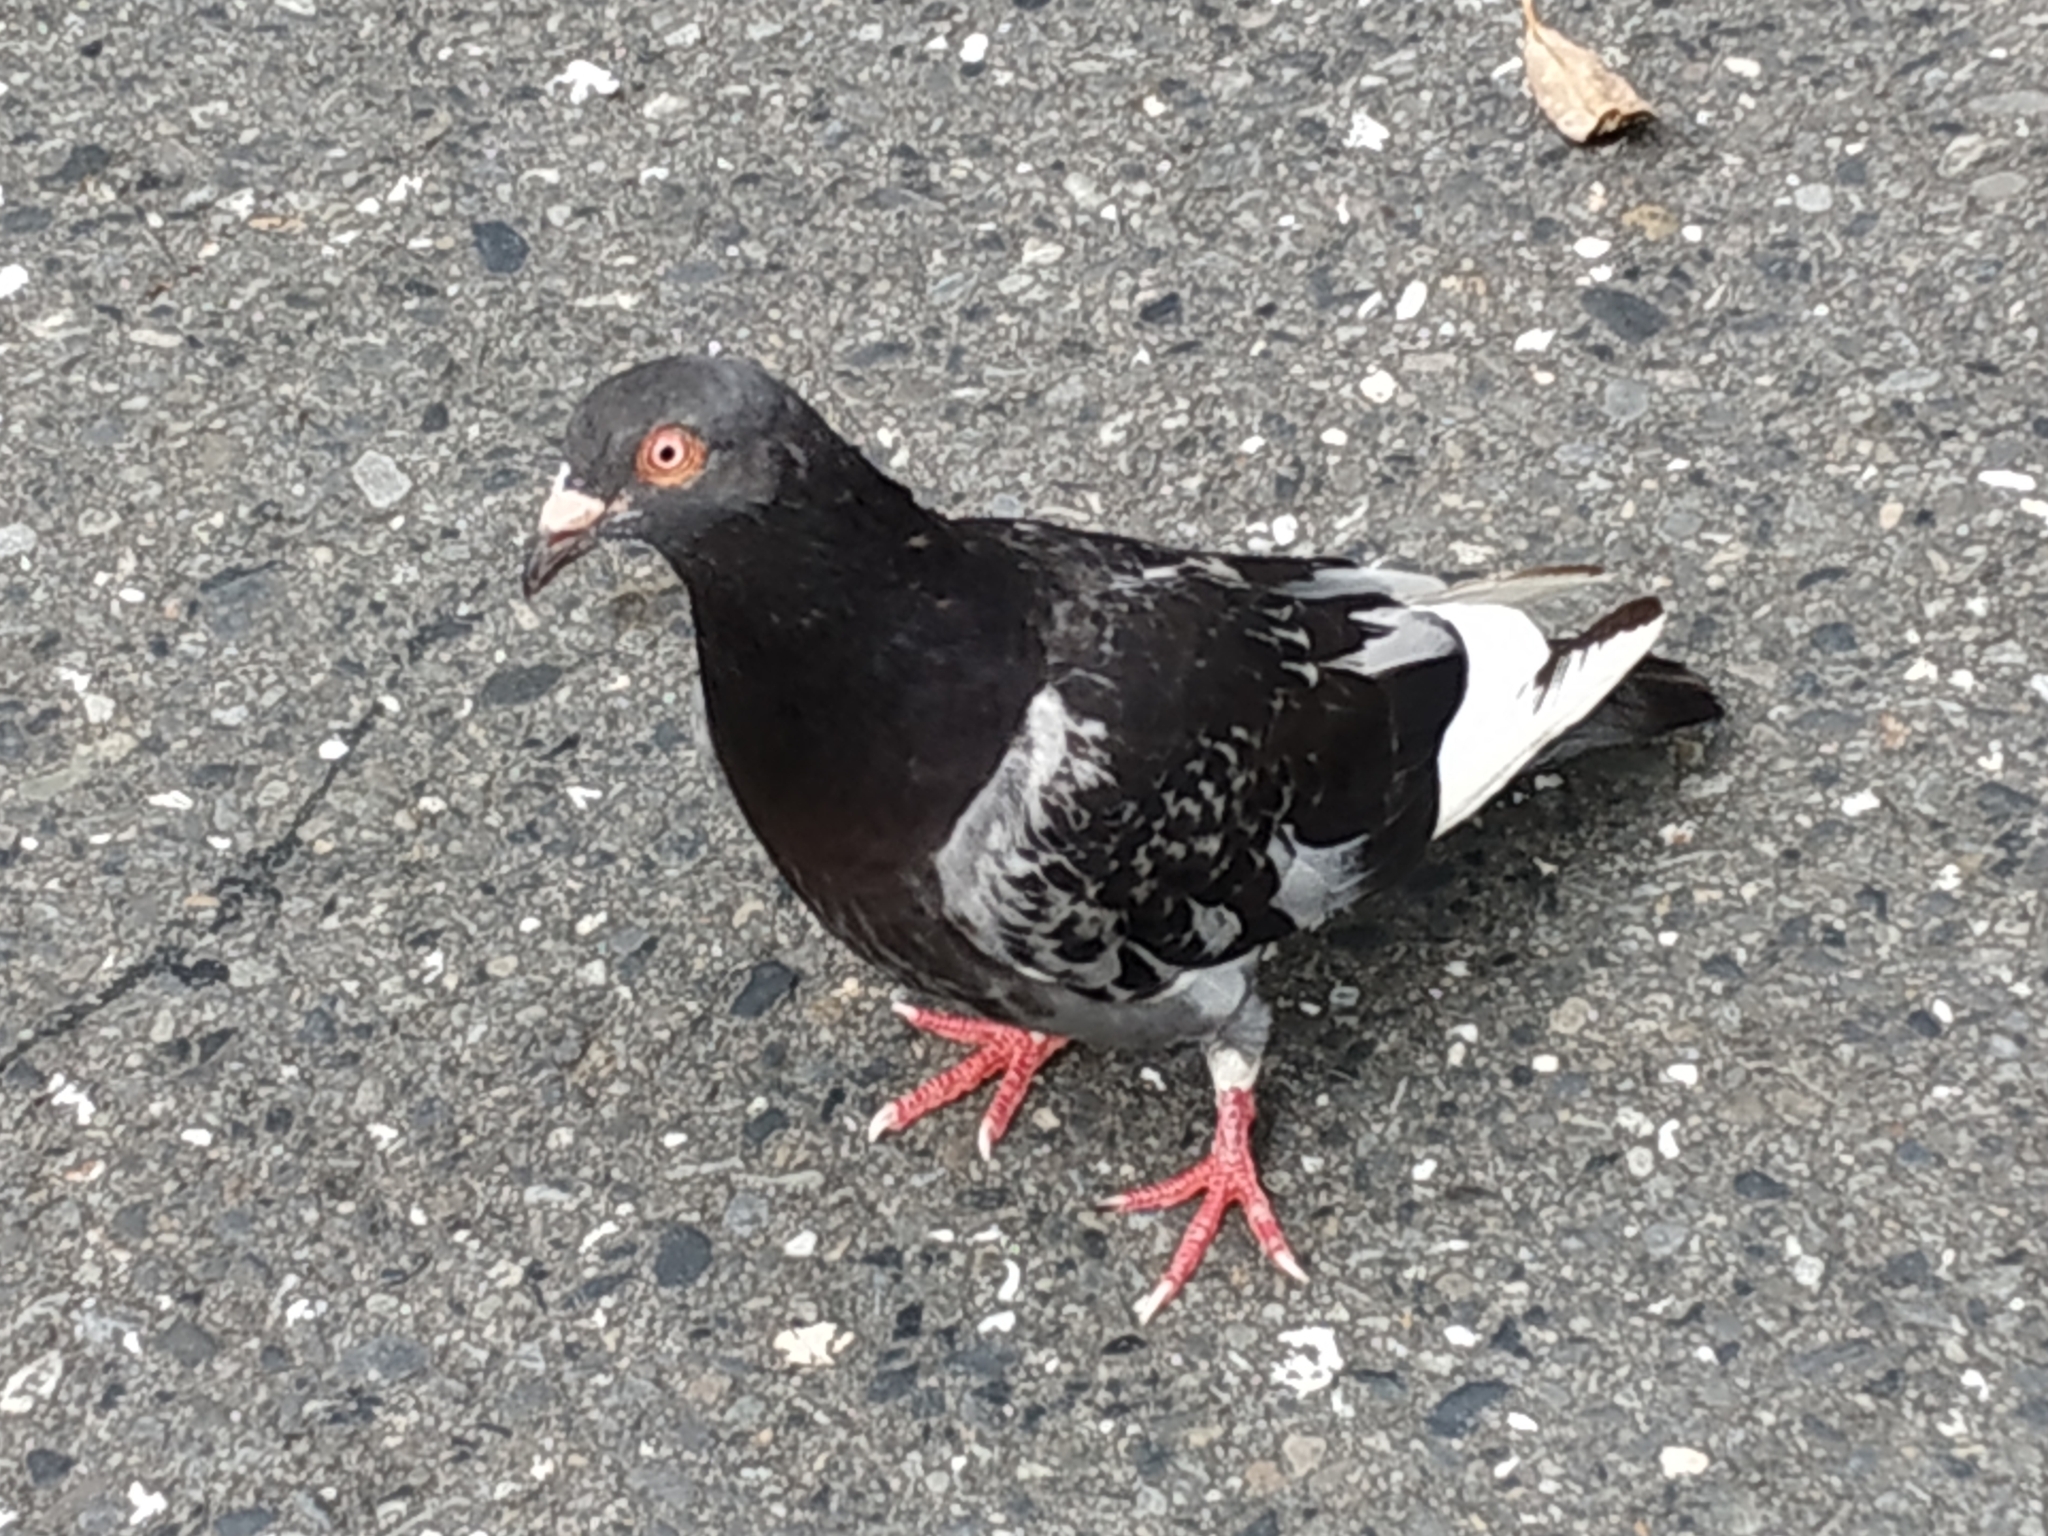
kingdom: Animalia
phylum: Chordata
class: Aves
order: Columbiformes
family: Columbidae
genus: Columba
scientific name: Columba livia
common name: Rock pigeon
